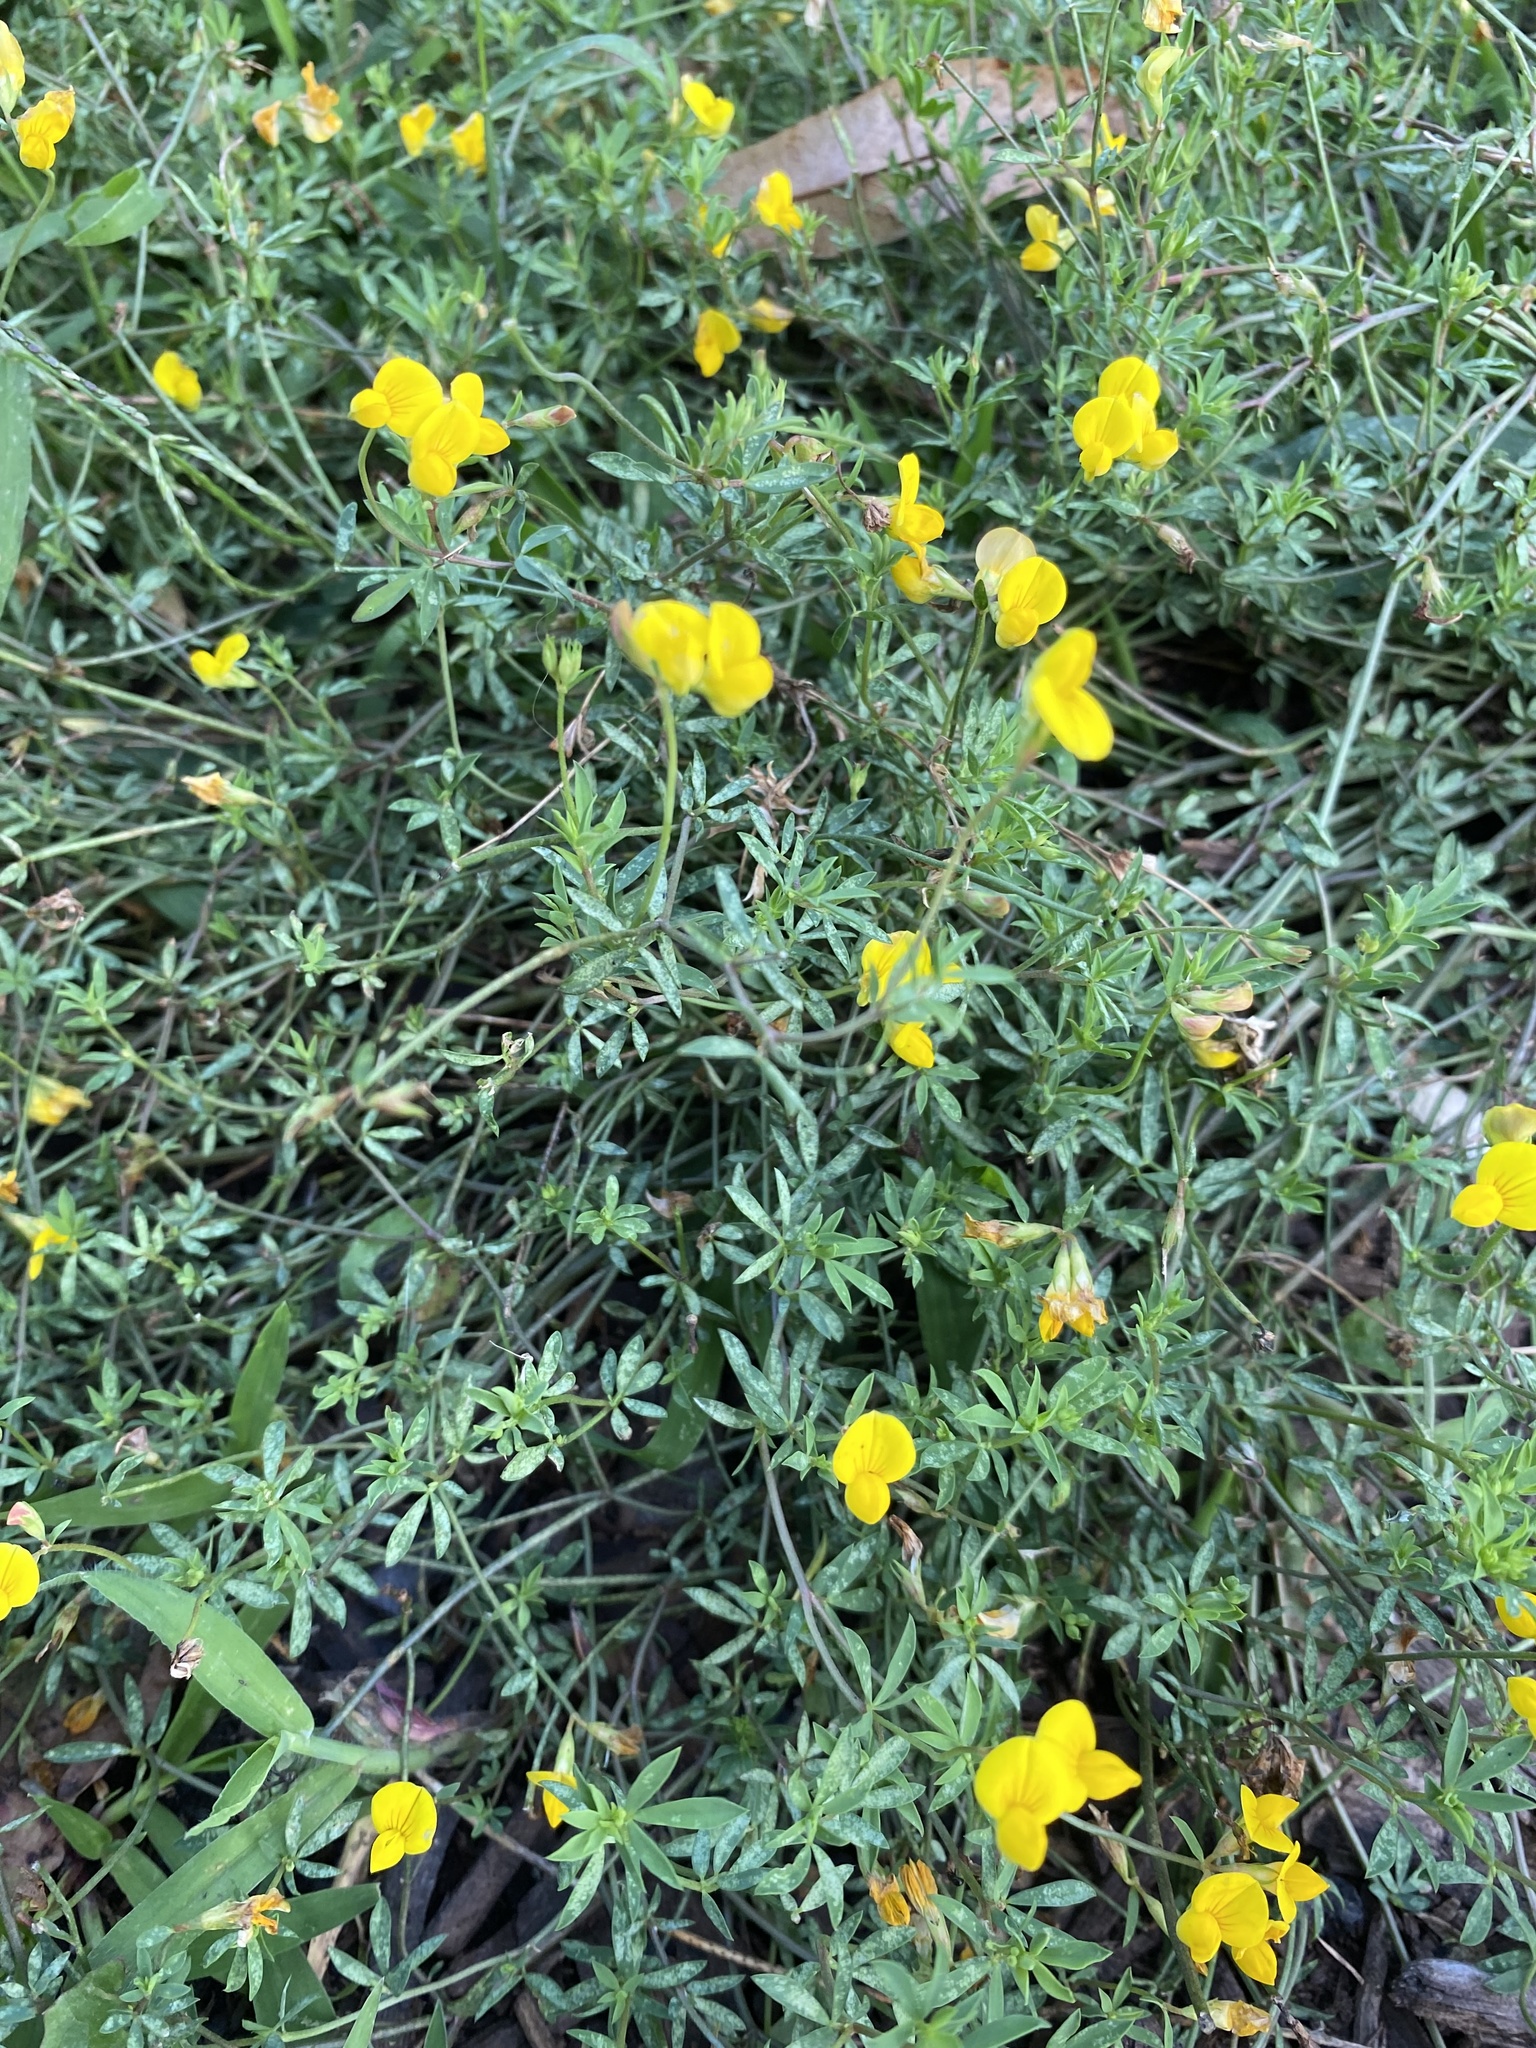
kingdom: Plantae
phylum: Tracheophyta
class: Magnoliopsida
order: Fabales
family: Fabaceae
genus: Lotus
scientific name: Lotus tenuis
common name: Narrow-leaved bird's-foot-trefoil
